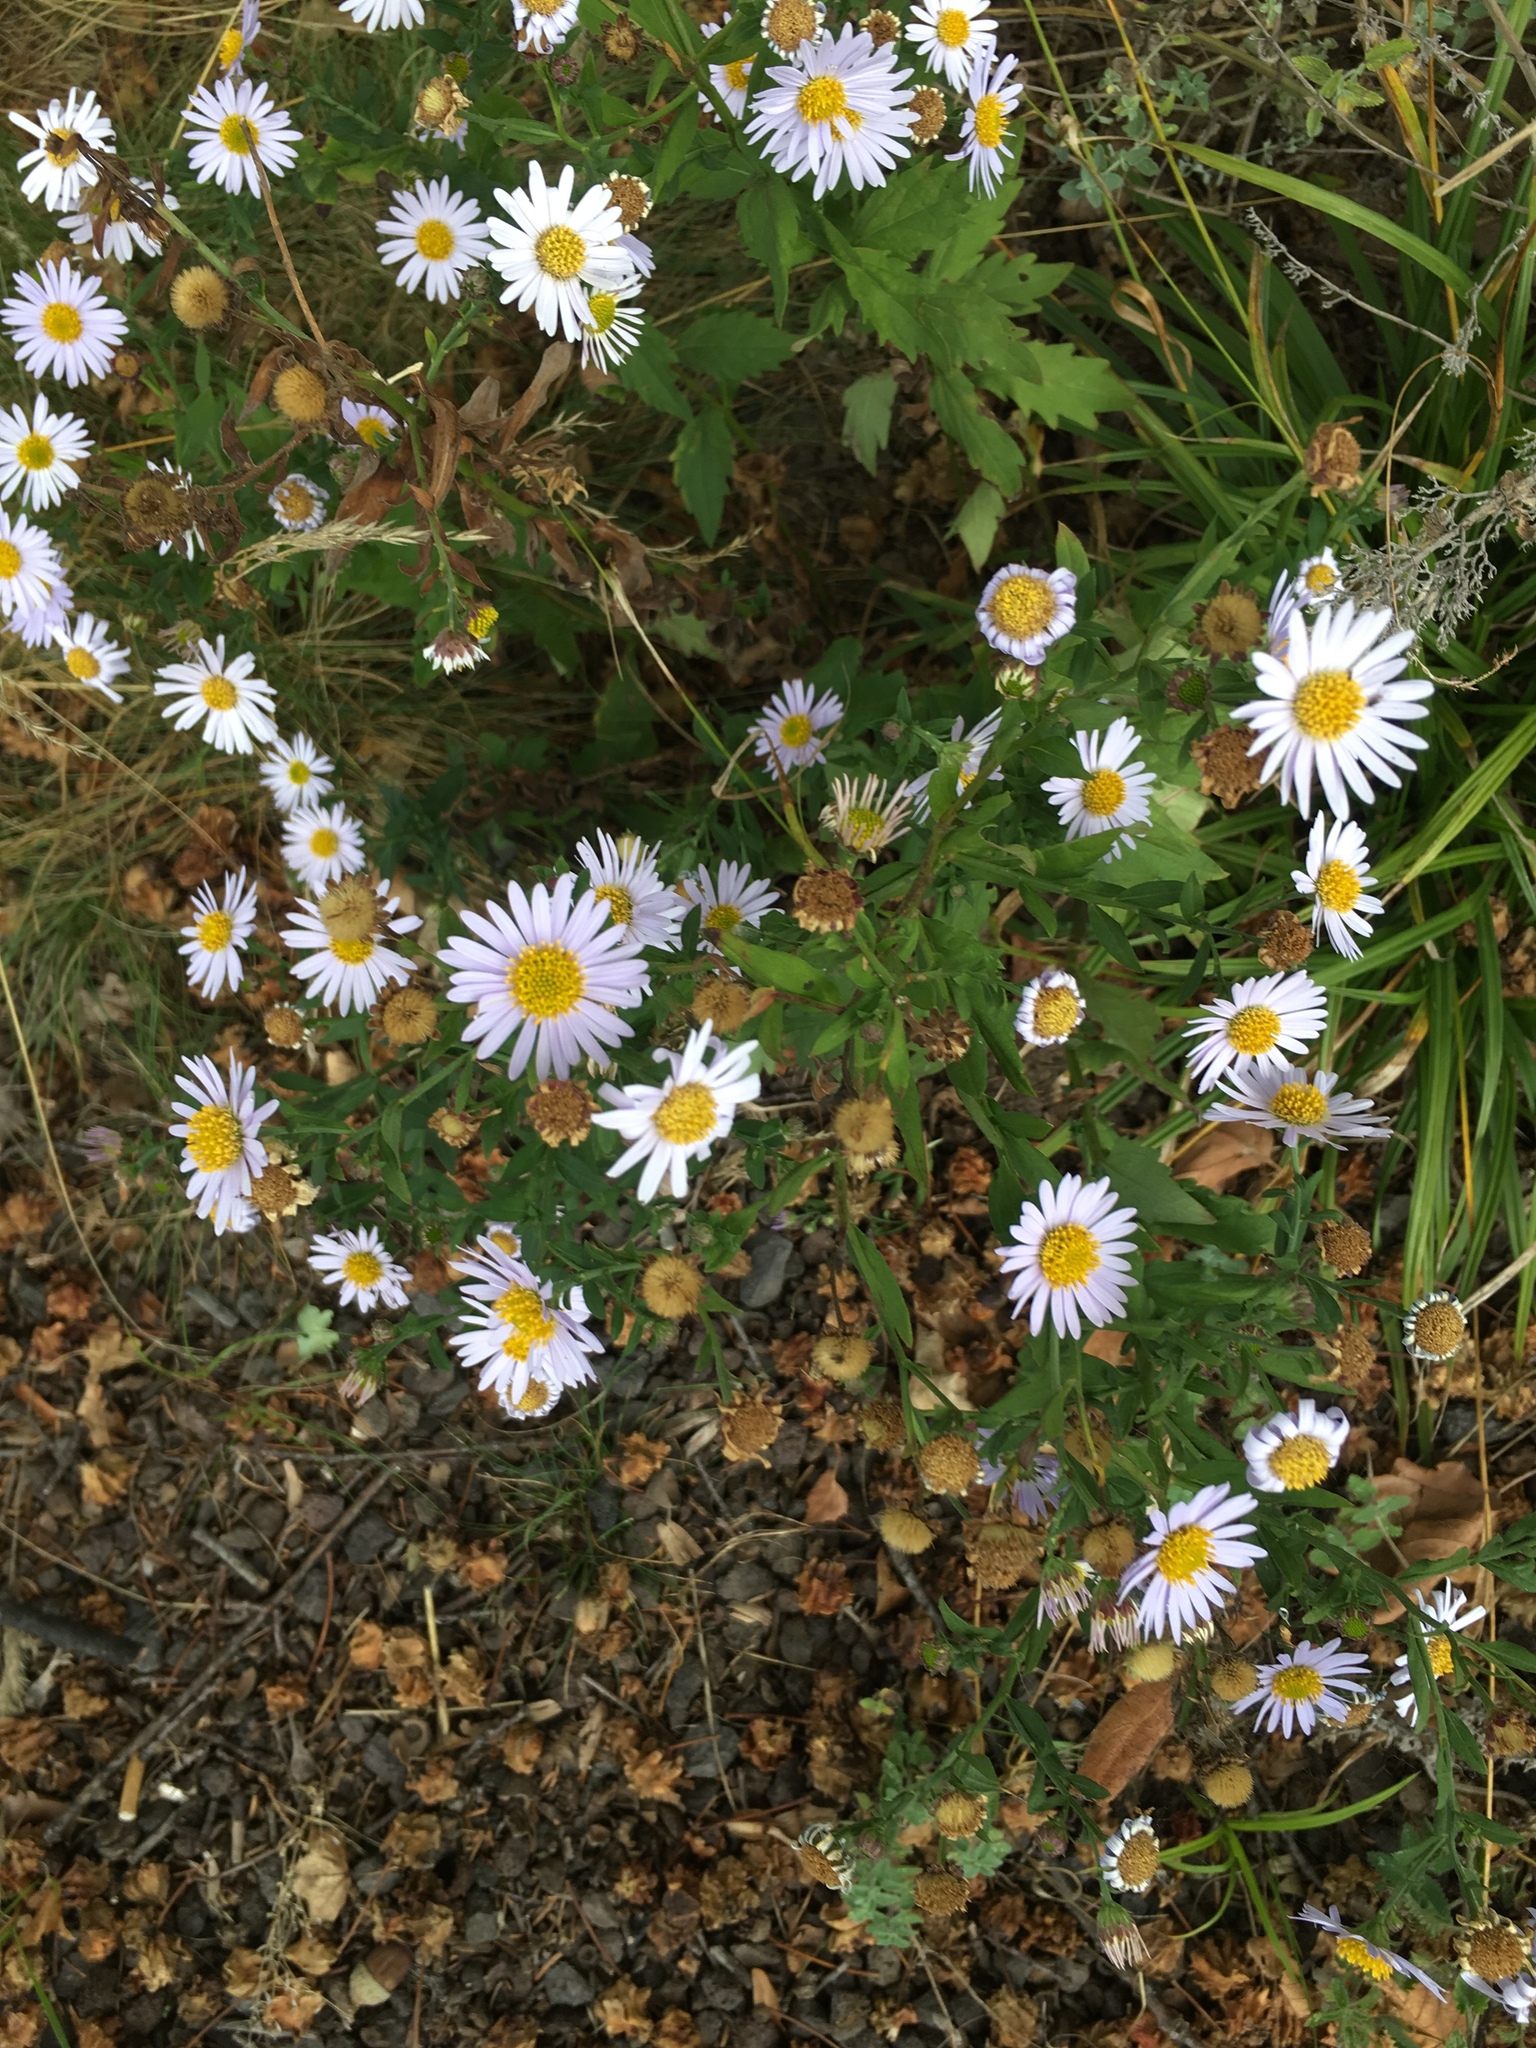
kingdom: Plantae
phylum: Tracheophyta
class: Magnoliopsida
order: Asterales
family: Asteraceae
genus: Symphyotrichum
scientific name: Symphyotrichum laeve
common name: Glaucous aster
